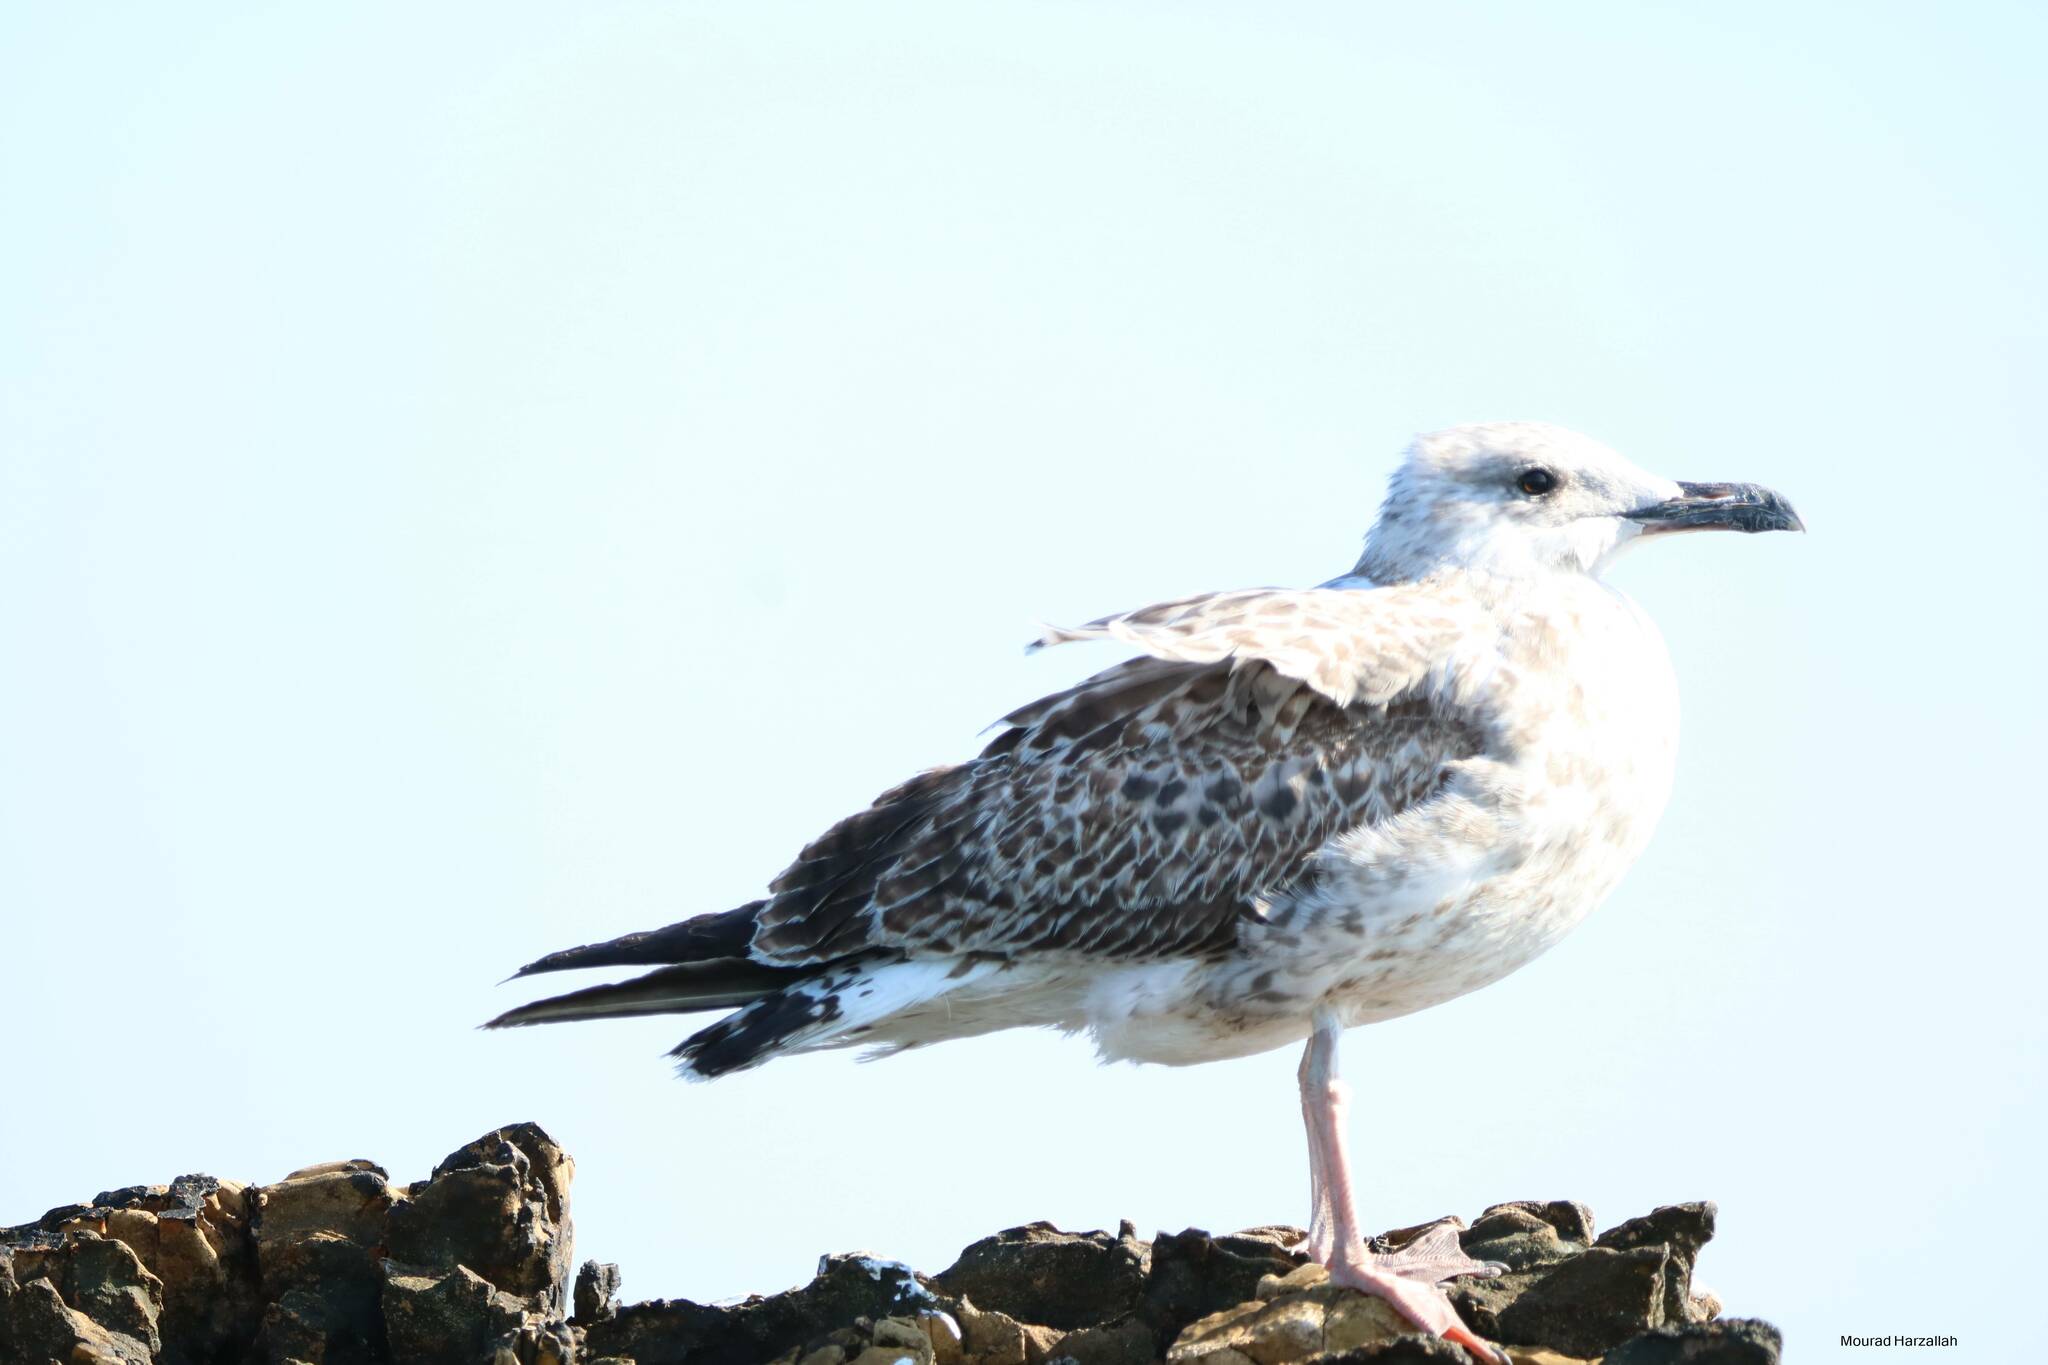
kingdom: Animalia
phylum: Chordata
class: Aves
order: Charadriiformes
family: Laridae
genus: Larus
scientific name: Larus michahellis
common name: Yellow-legged gull
